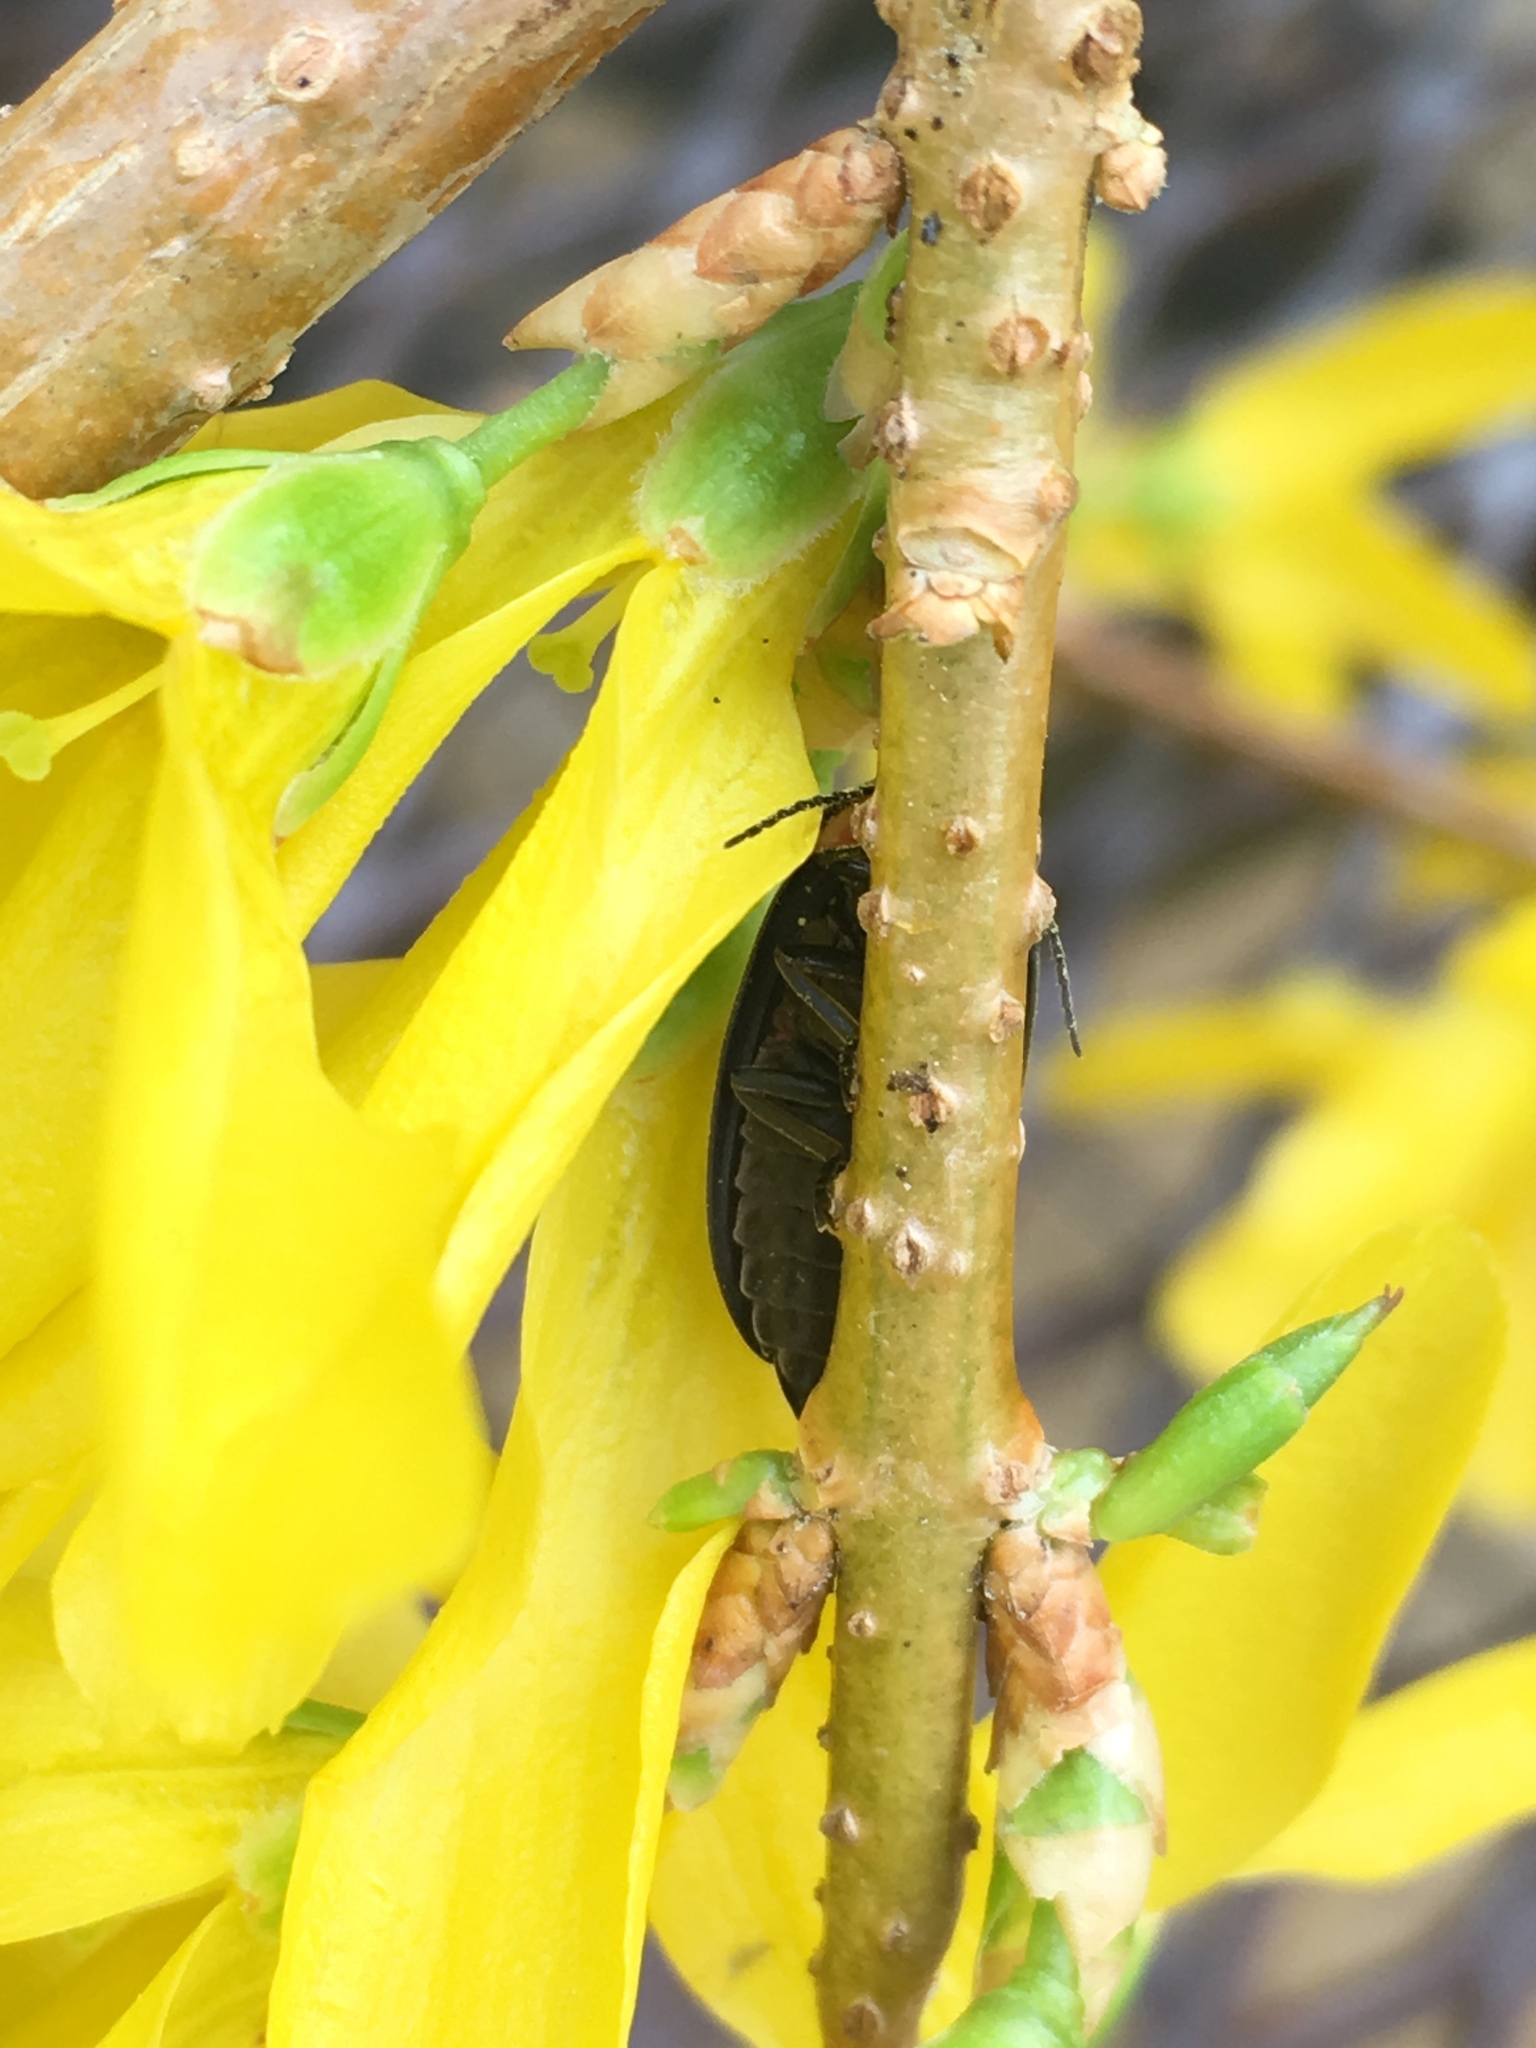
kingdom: Animalia
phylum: Arthropoda
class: Insecta
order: Coleoptera
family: Lampyridae
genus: Photinus
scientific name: Photinus corrusca
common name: Winter firefly
